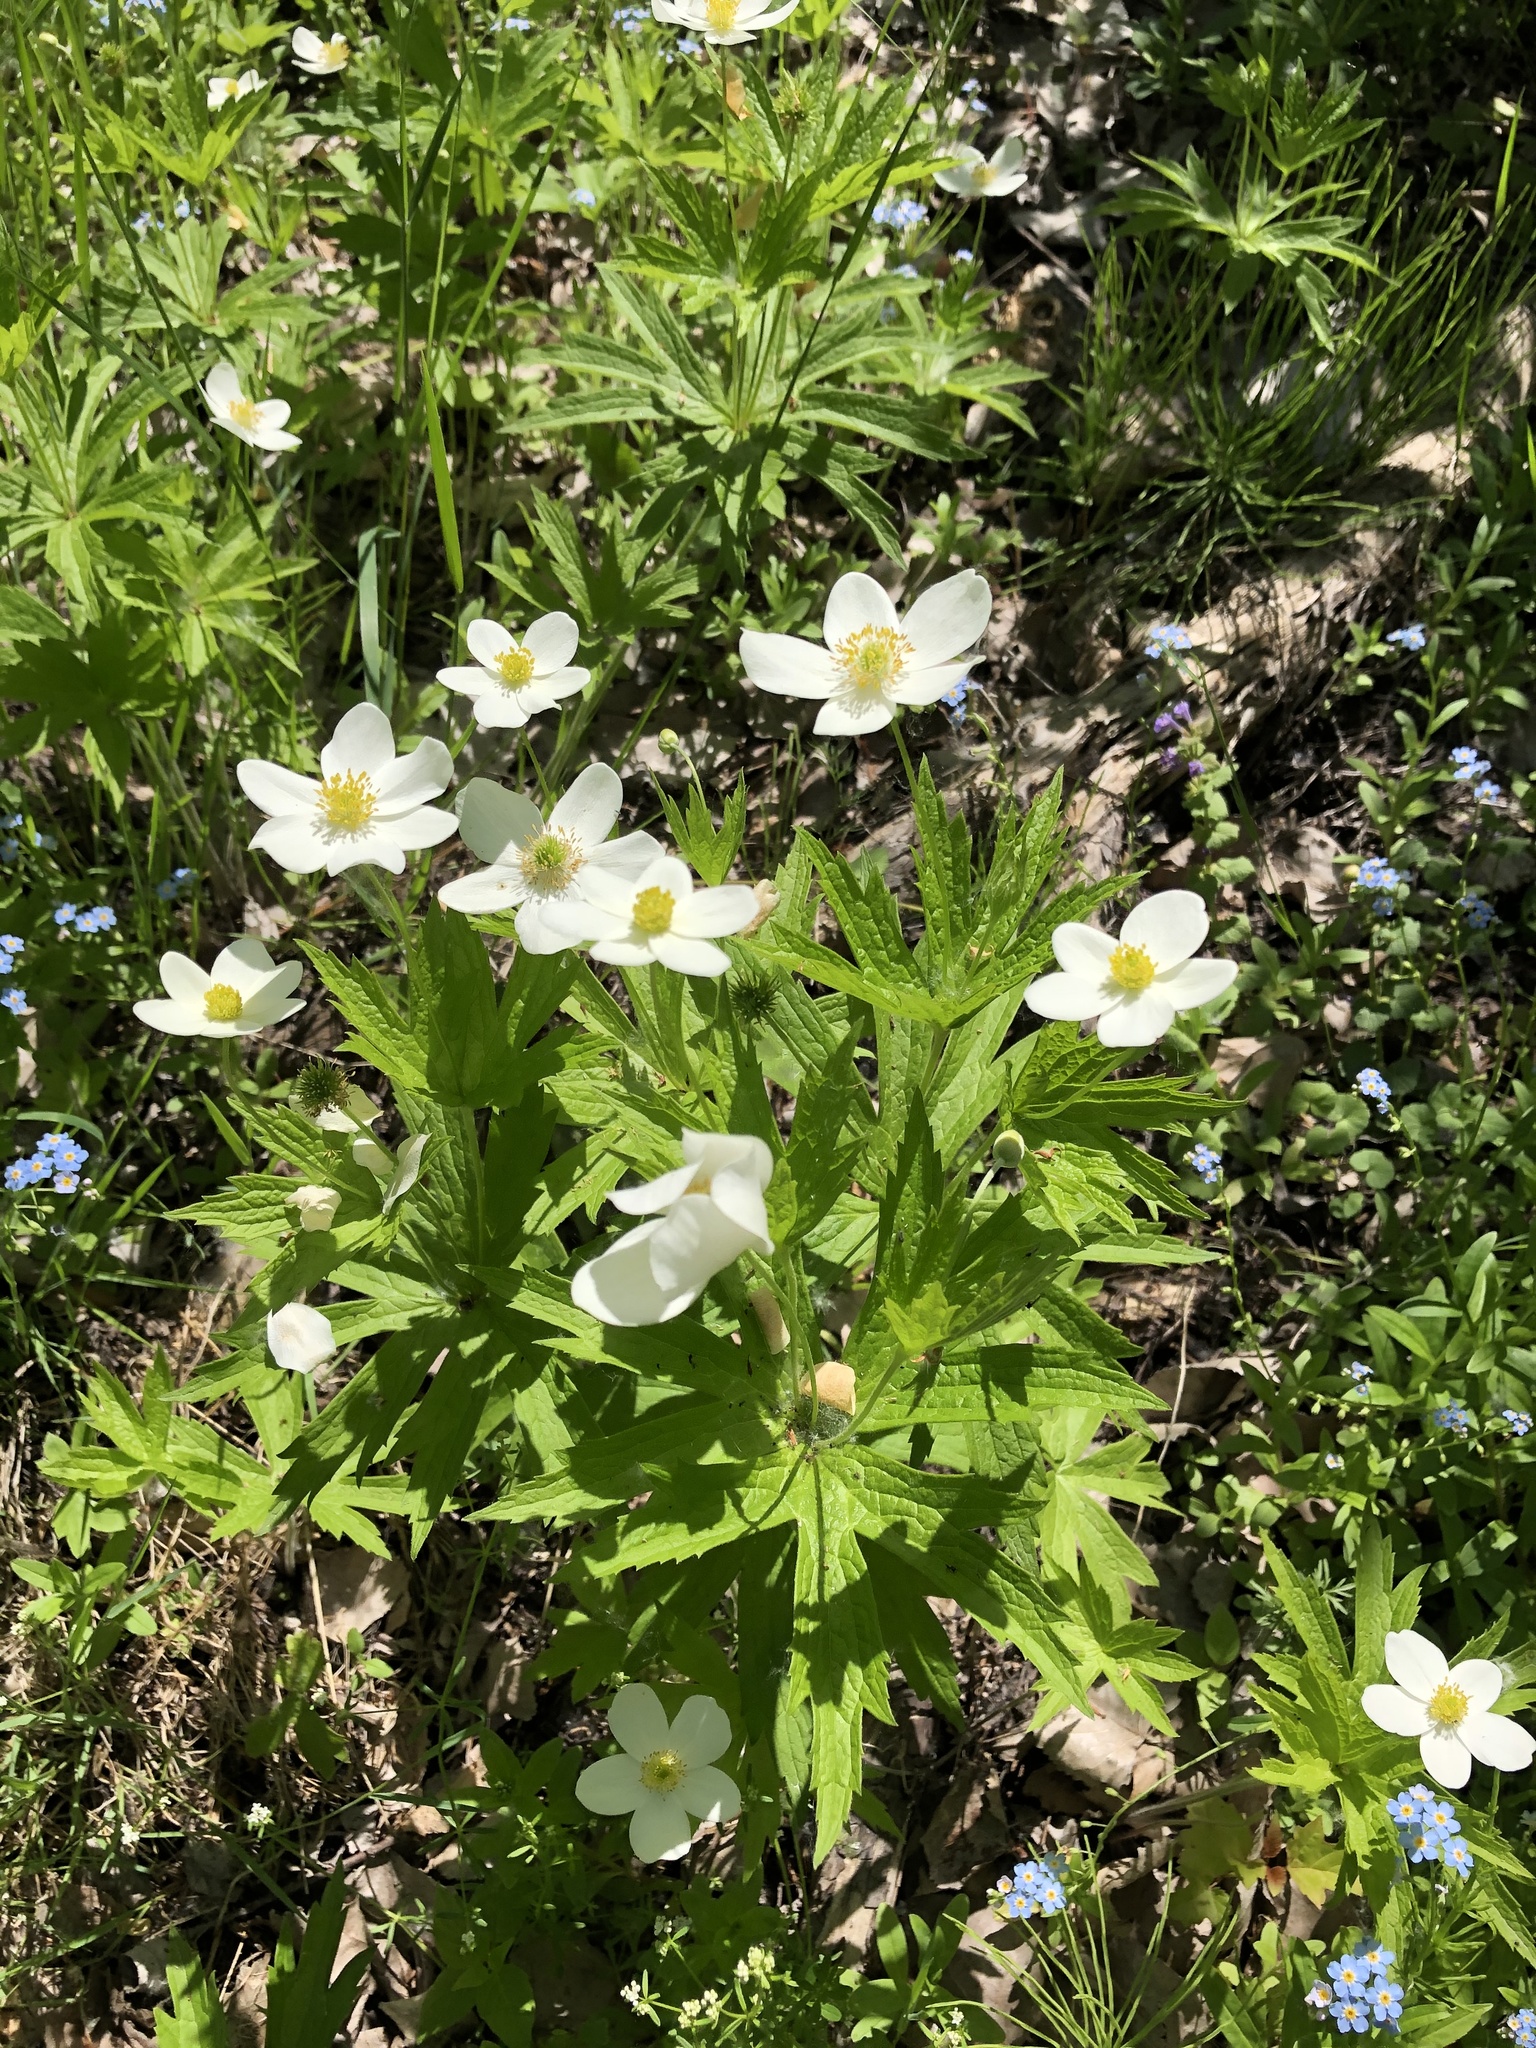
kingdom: Plantae
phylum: Tracheophyta
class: Magnoliopsida
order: Ranunculales
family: Ranunculaceae
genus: Anemonastrum
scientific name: Anemonastrum canadense
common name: Canada anemone
